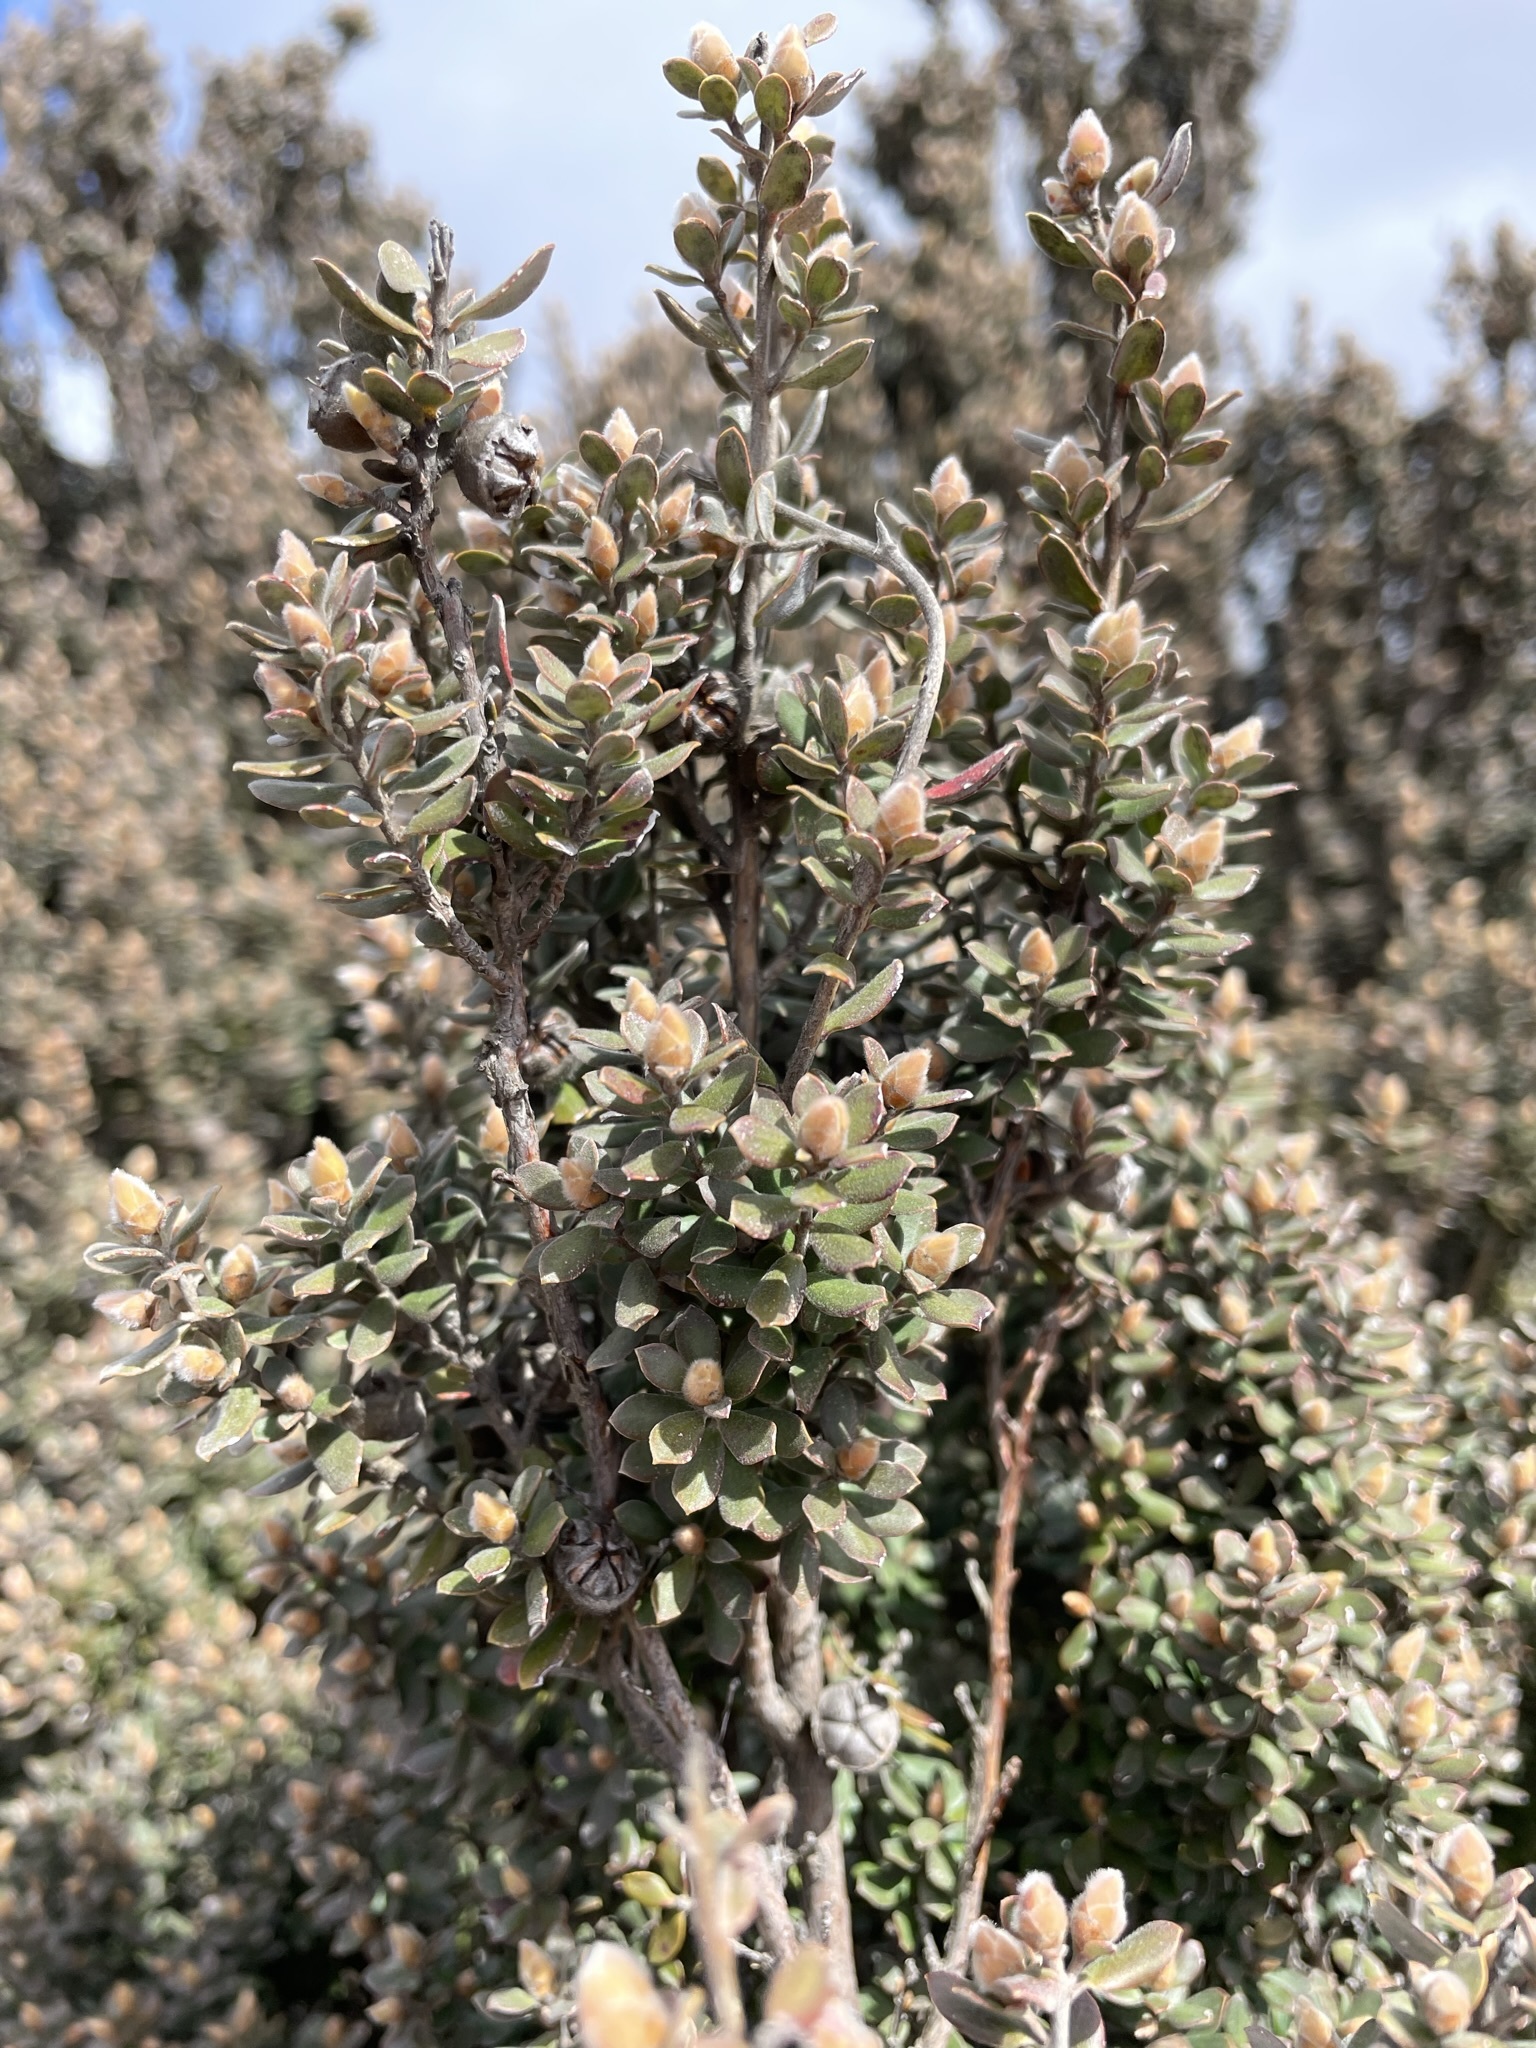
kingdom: Plantae
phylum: Tracheophyta
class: Magnoliopsida
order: Myrtales
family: Myrtaceae
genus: Leptospermum
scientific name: Leptospermum lanigerum
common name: Woolly tea-tree
